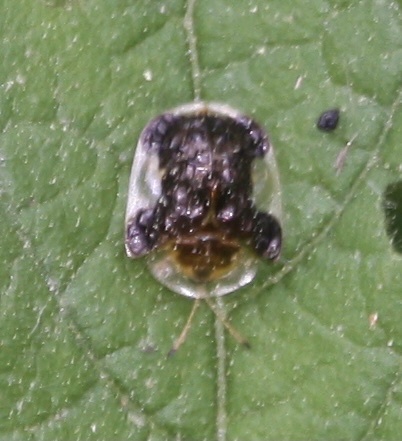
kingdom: Animalia
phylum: Arthropoda
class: Insecta
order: Coleoptera
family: Chrysomelidae
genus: Helocassis
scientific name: Helocassis clavata
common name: Clavate tortoise beetle
